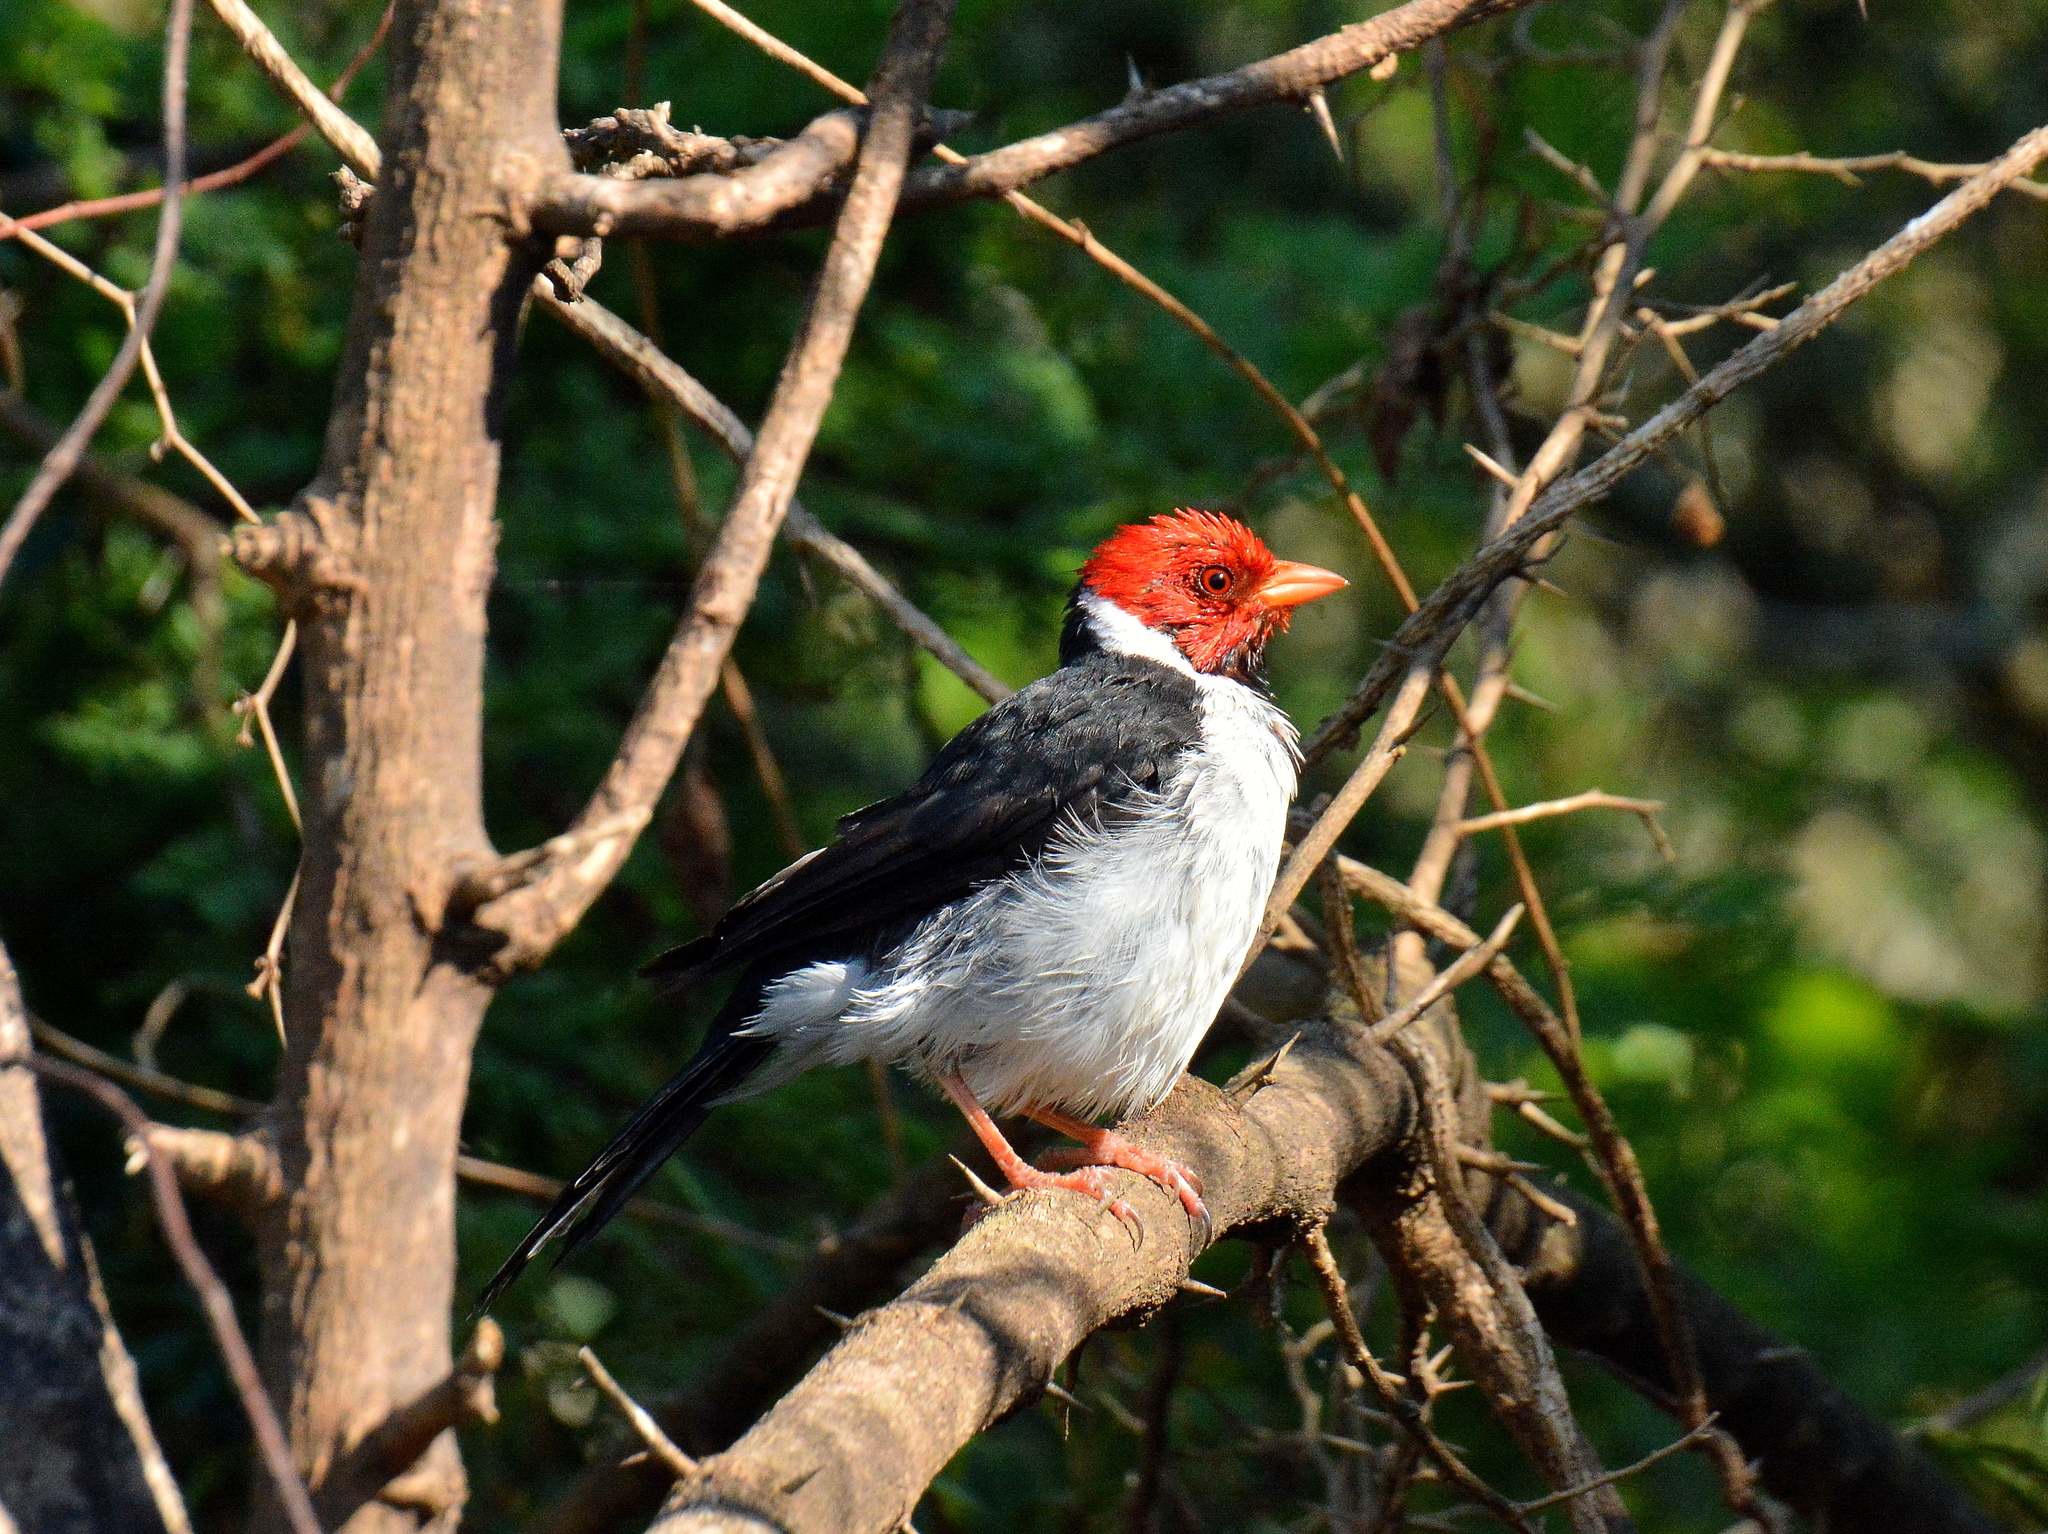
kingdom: Animalia
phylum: Chordata
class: Aves
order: Passeriformes
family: Thraupidae
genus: Paroaria
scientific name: Paroaria capitata
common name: Yellow-billed cardinal
